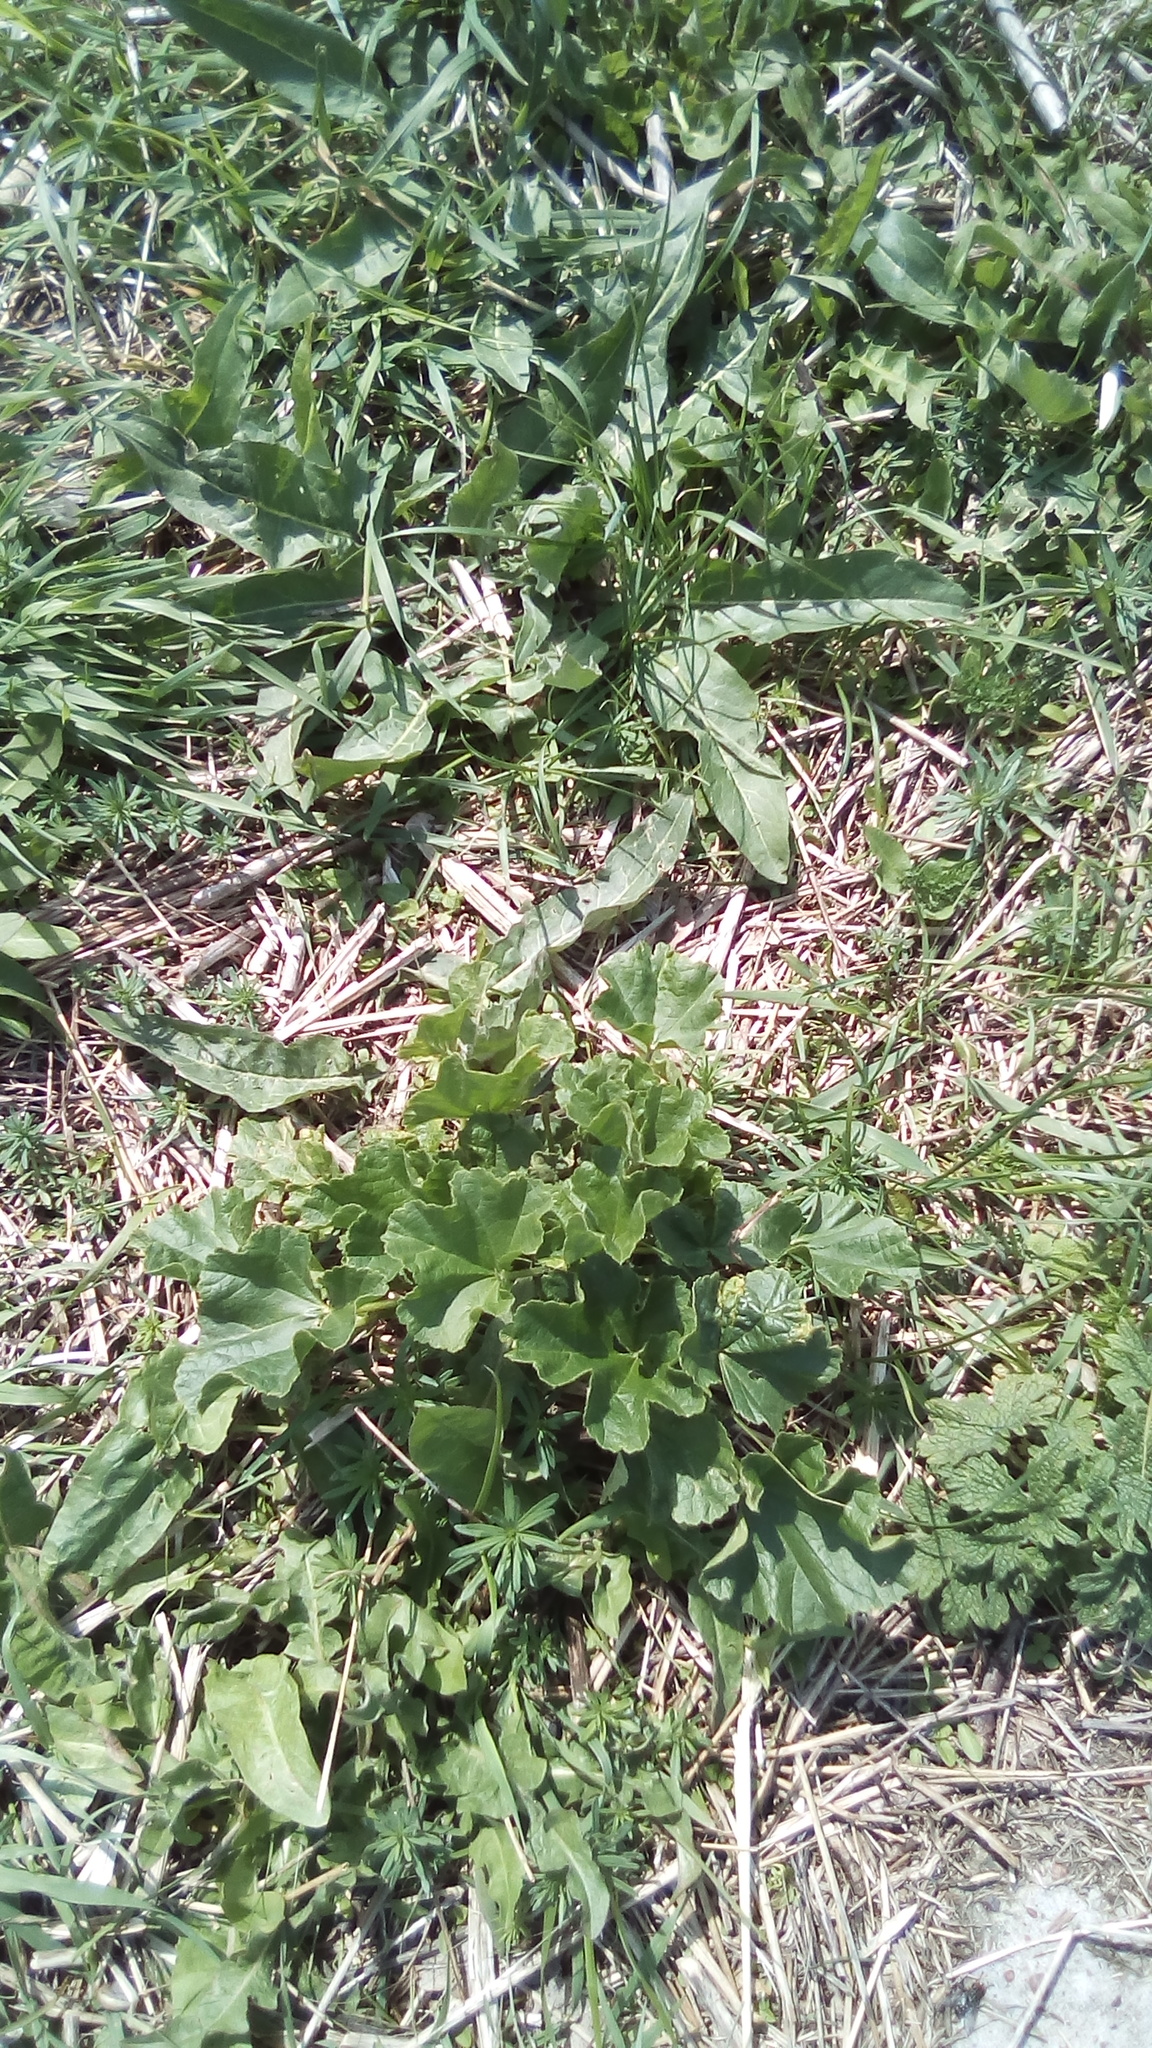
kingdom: Plantae
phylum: Tracheophyta
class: Magnoliopsida
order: Malvales
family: Malvaceae
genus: Malva
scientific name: Malva thuringiaca
